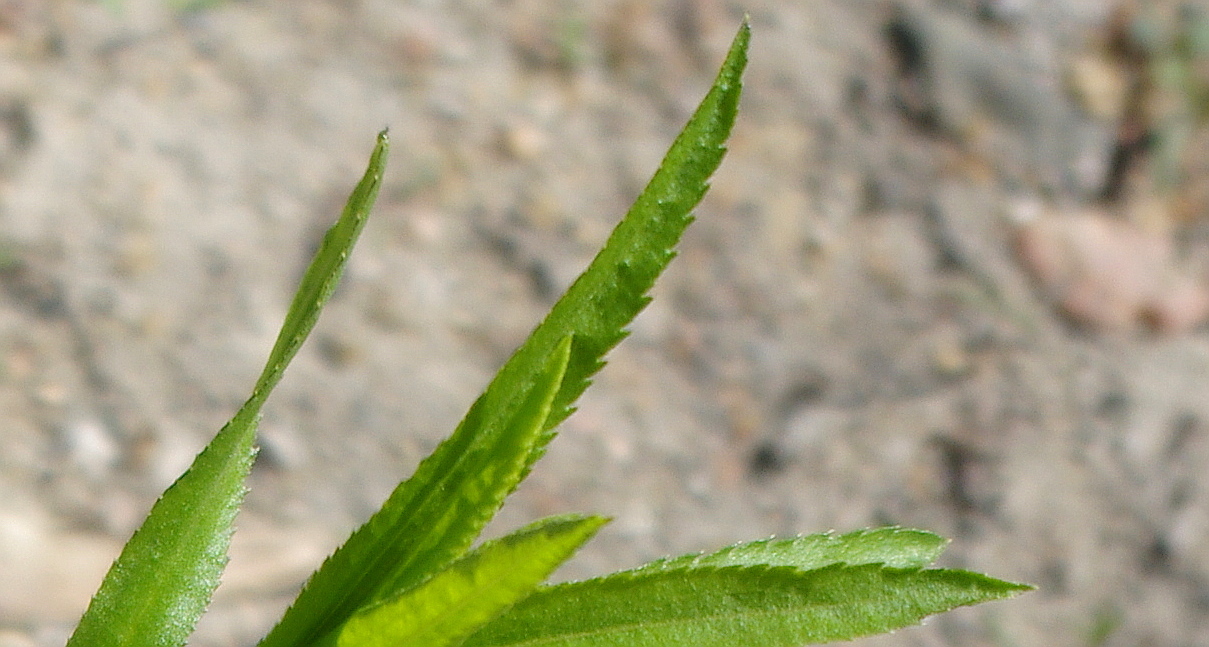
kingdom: Plantae
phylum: Tracheophyta
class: Magnoliopsida
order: Asterales
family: Asteraceae
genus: Achillea
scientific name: Achillea salicifolia
